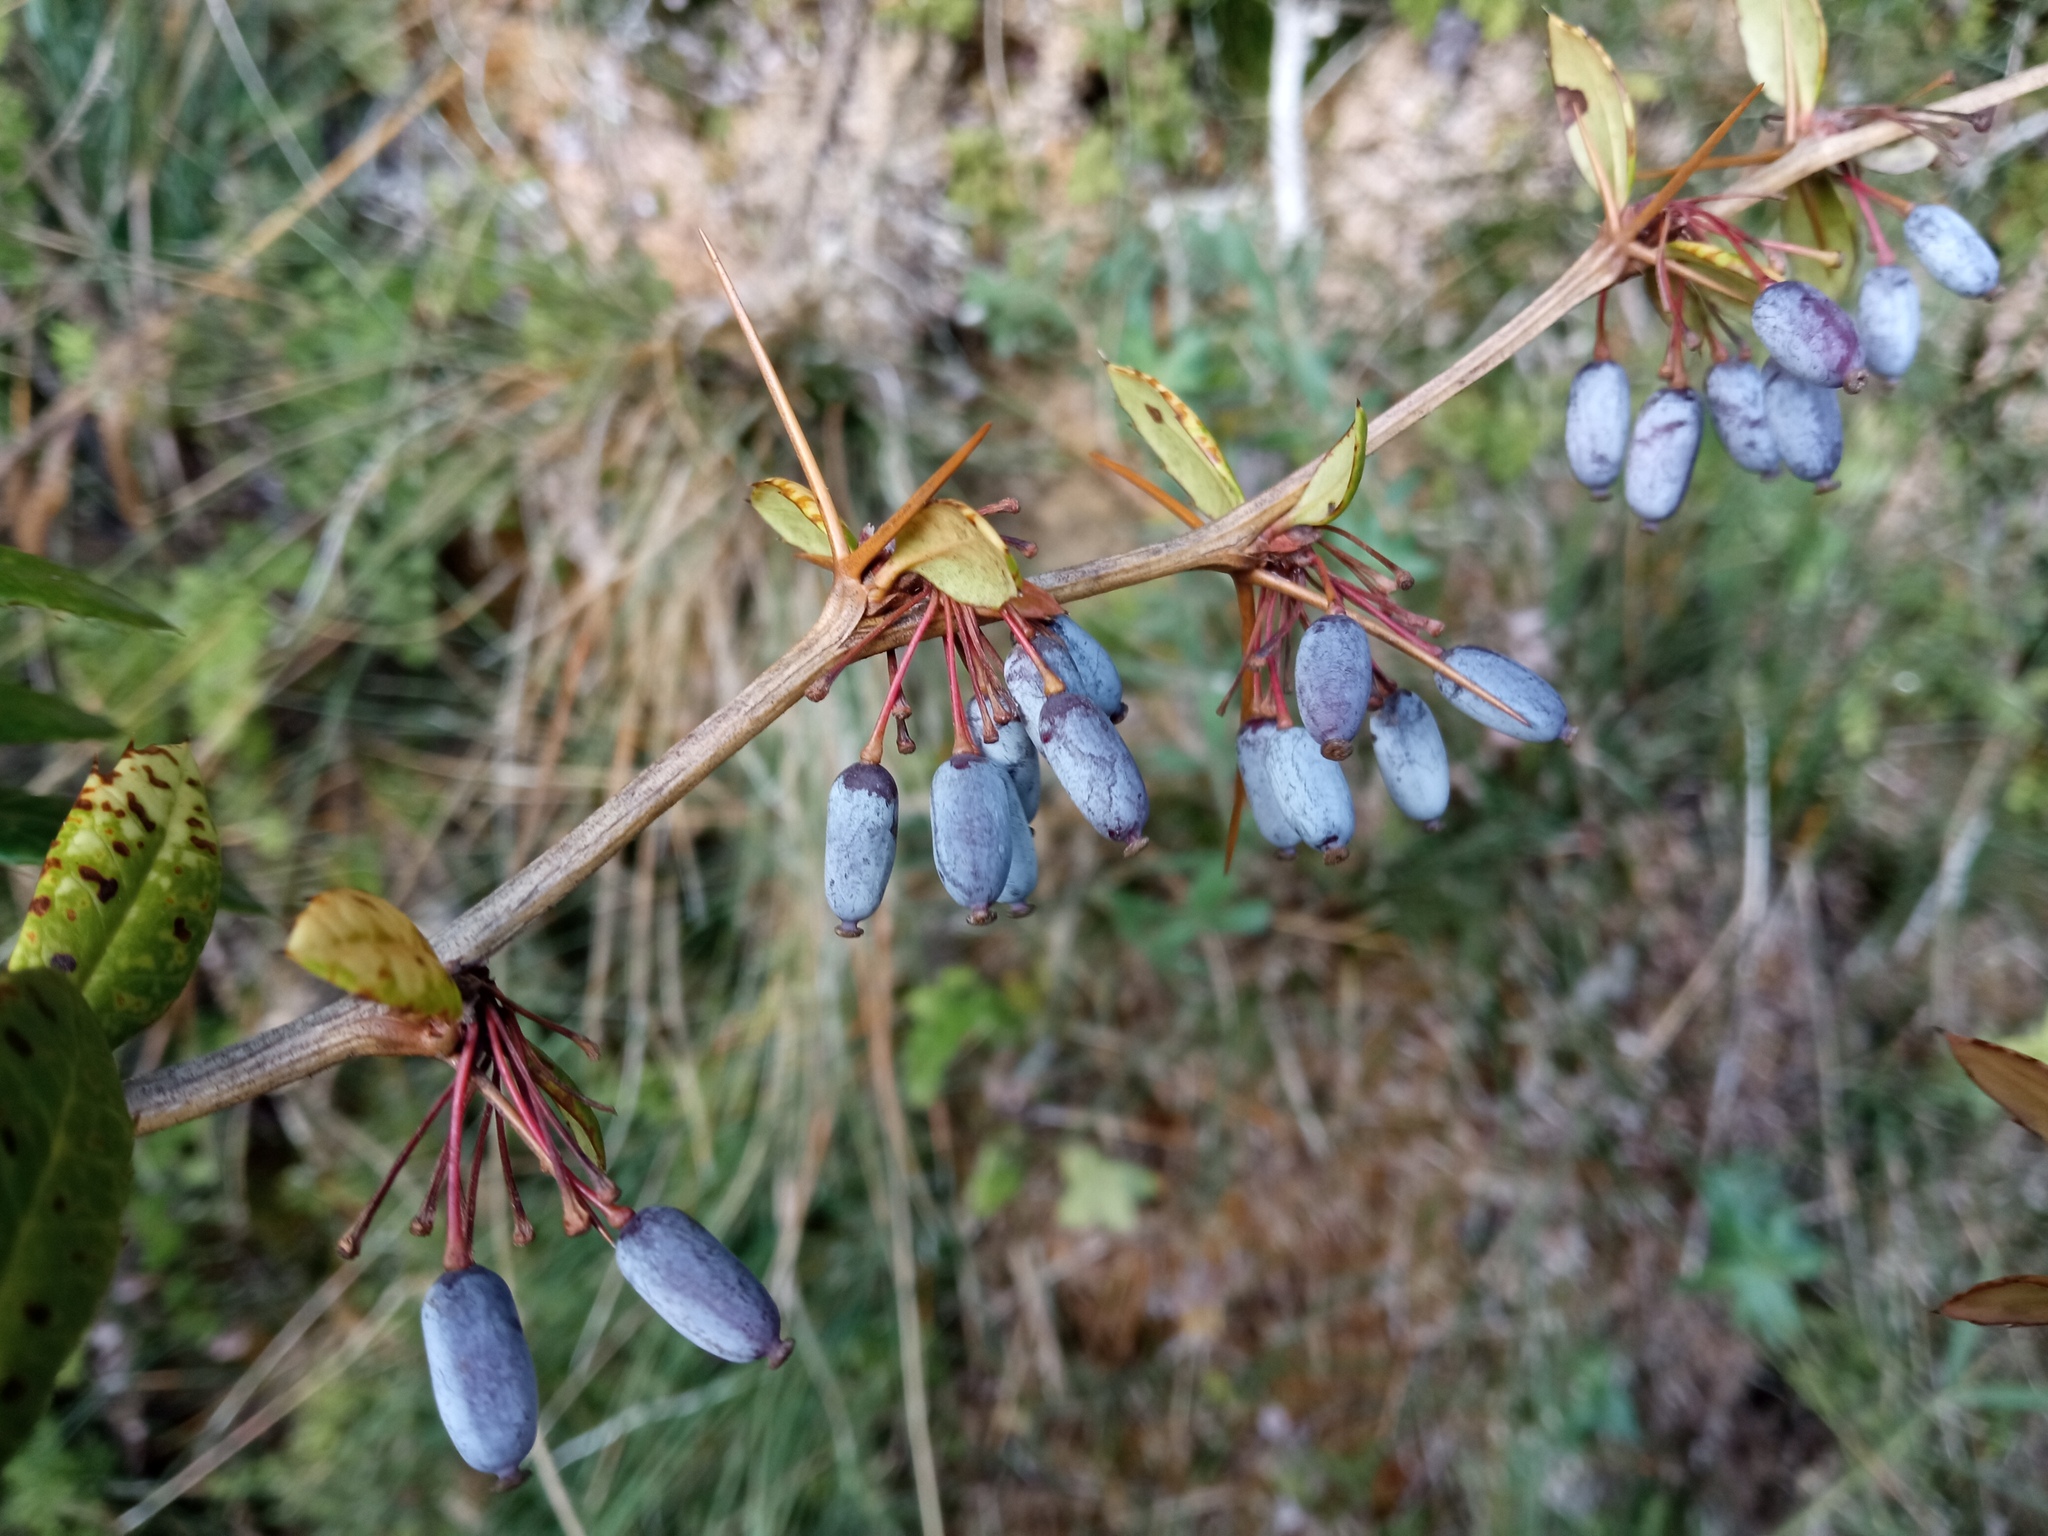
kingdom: Plantae
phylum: Tracheophyta
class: Magnoliopsida
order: Ranunculales
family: Berberidaceae
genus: Berberis
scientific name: Berberis julianae
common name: Wintergreen barberry
